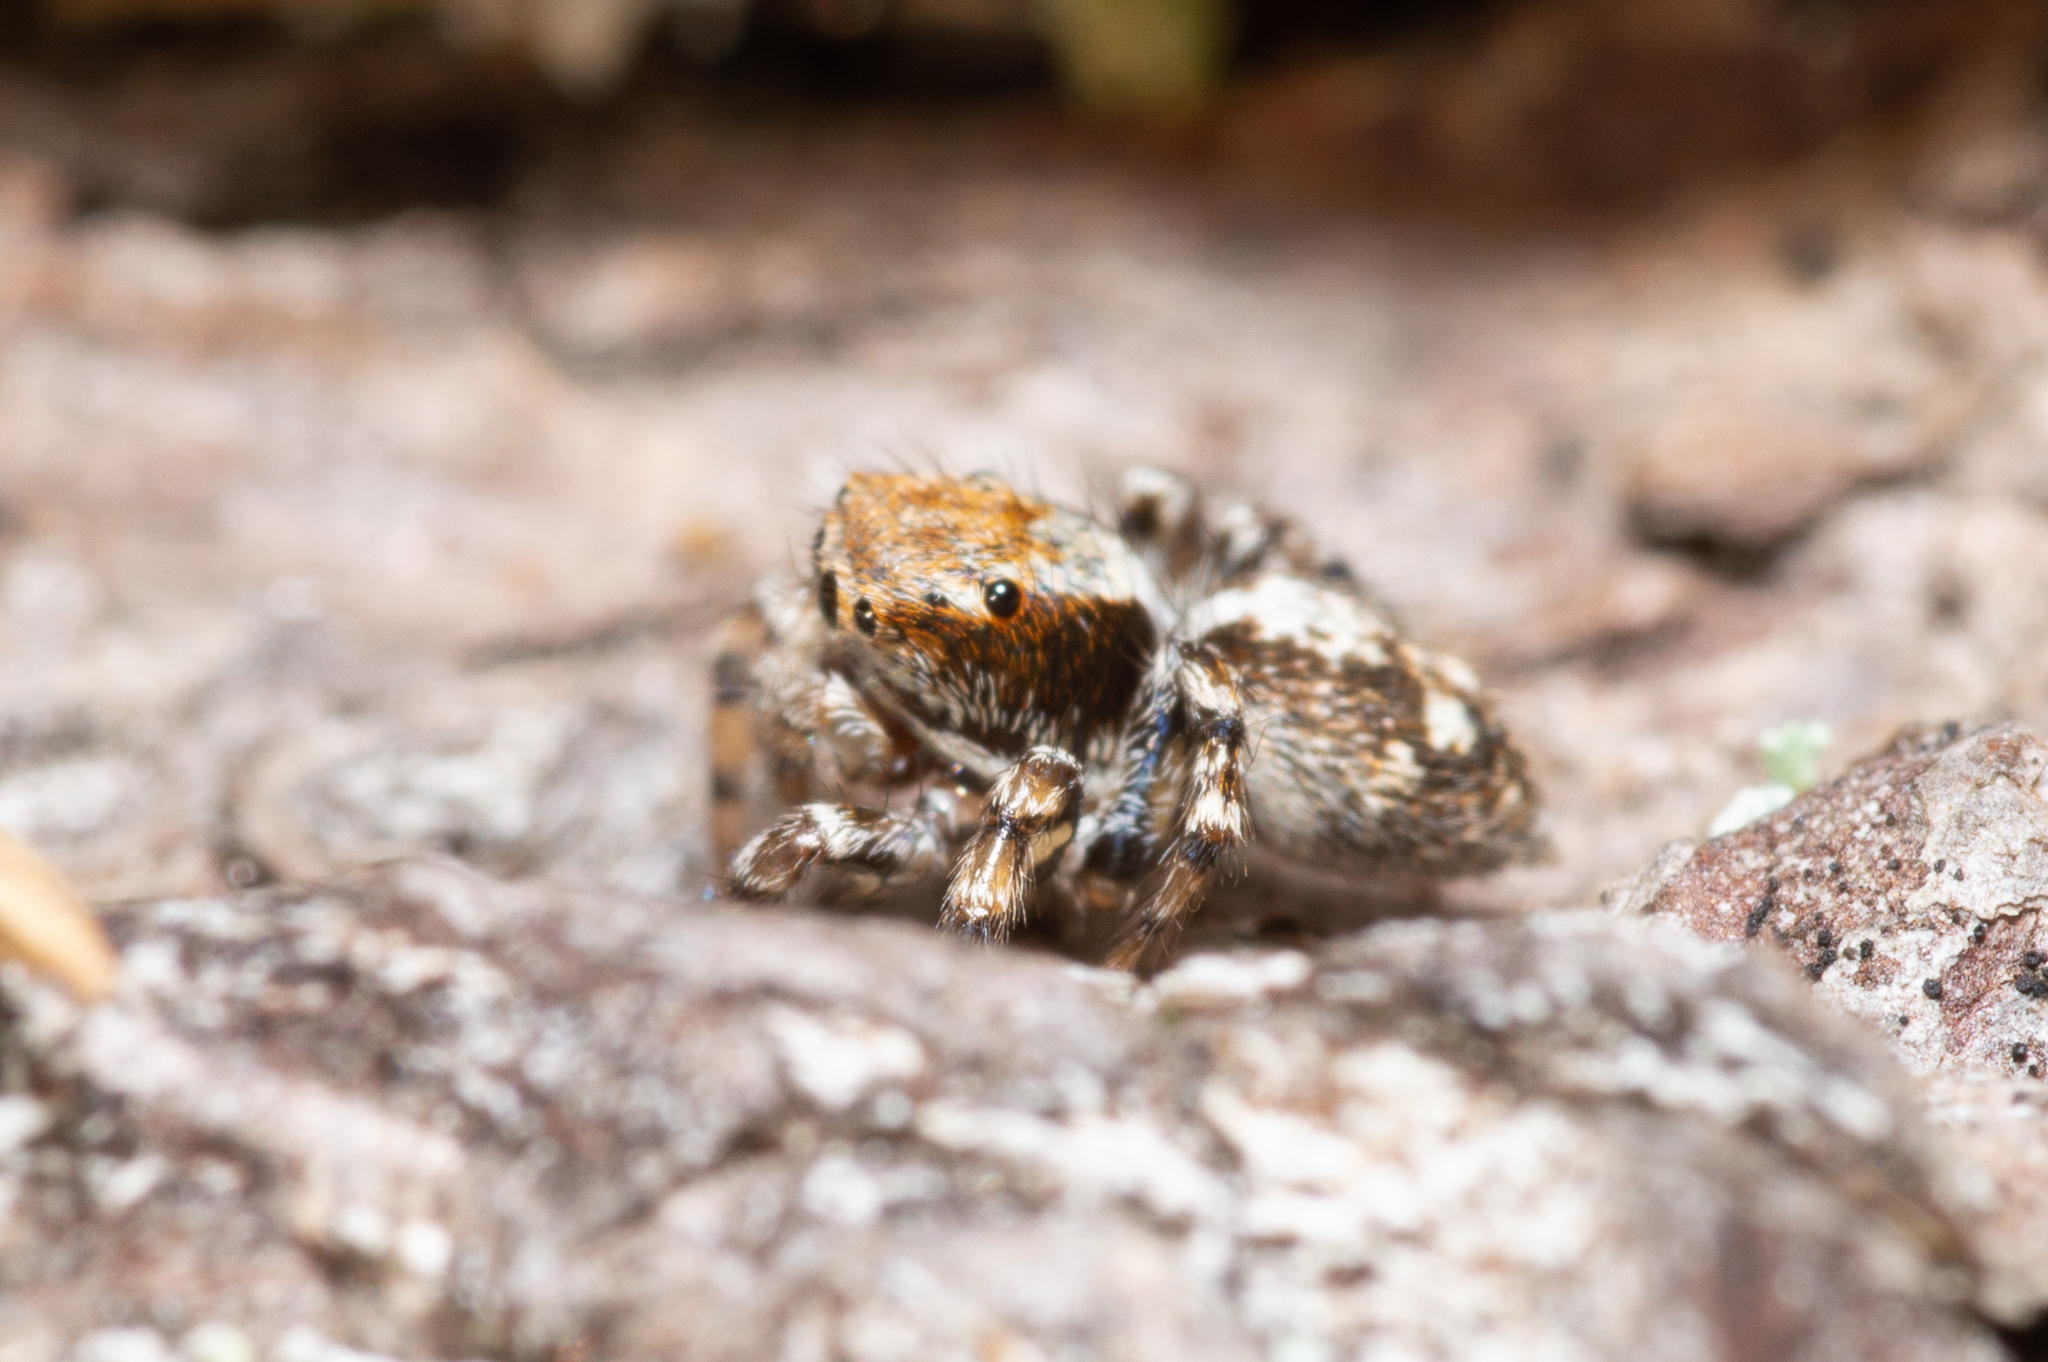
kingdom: Animalia
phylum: Arthropoda
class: Arachnida
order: Araneae
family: Salticidae
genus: Naphrys
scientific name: Naphrys pulex
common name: Flea jumping spider
